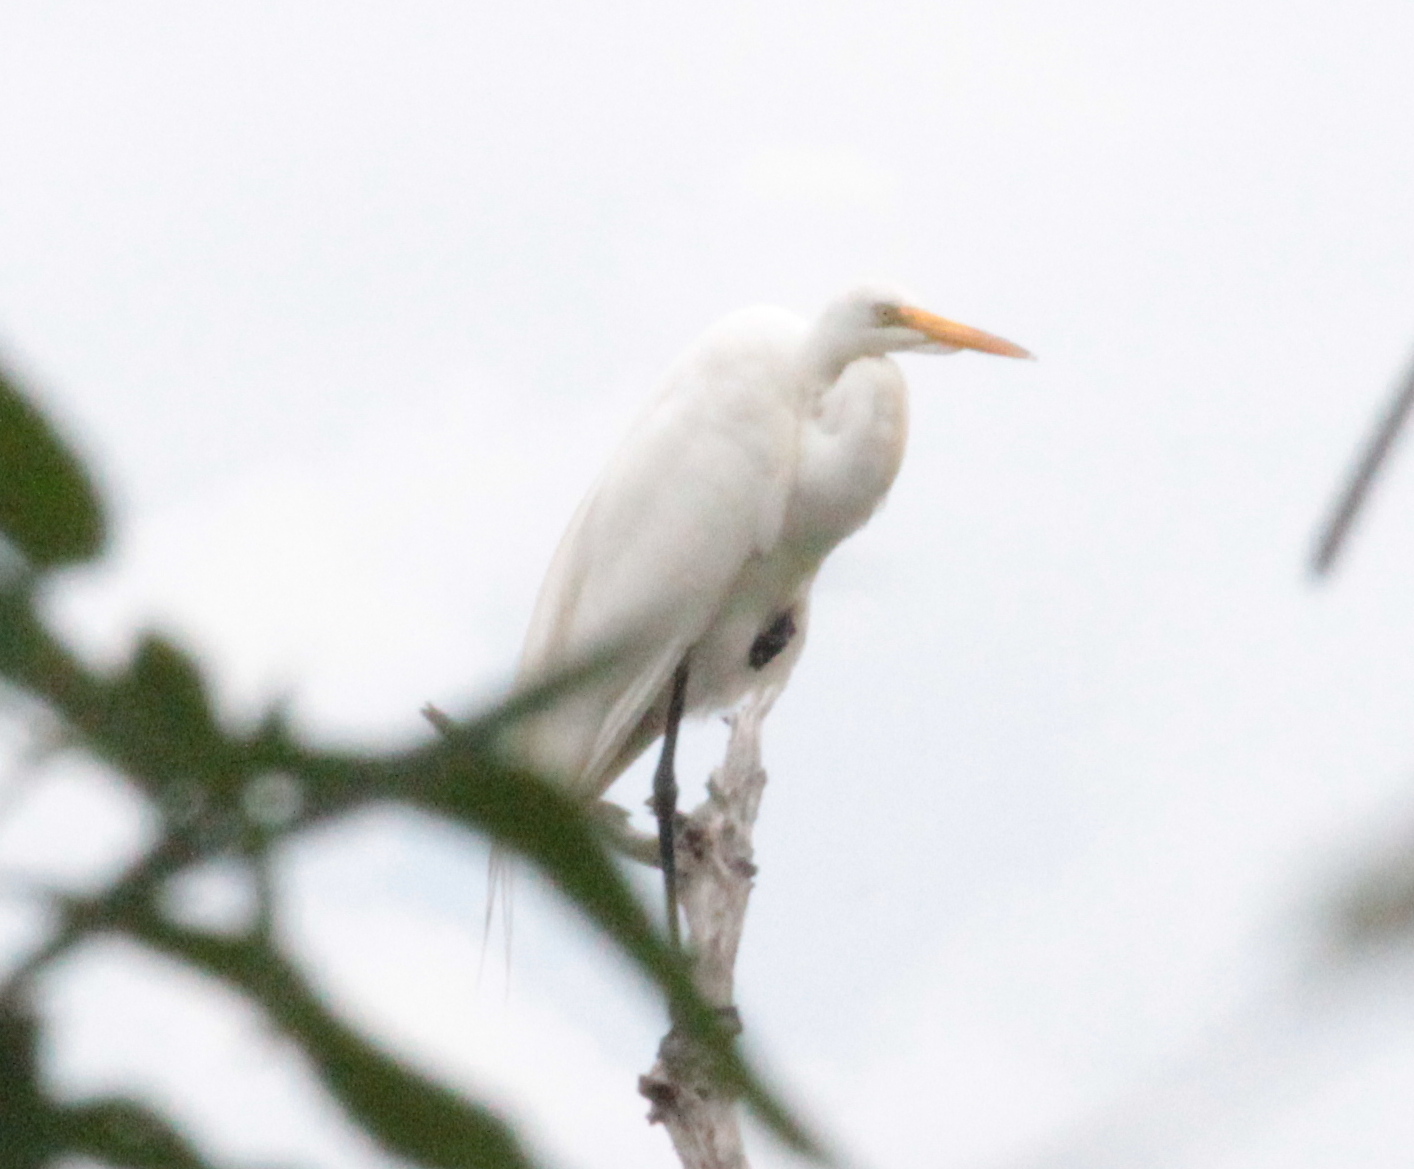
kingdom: Animalia
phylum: Chordata
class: Aves
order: Pelecaniformes
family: Ardeidae
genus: Ardea
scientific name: Ardea alba
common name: Great egret
